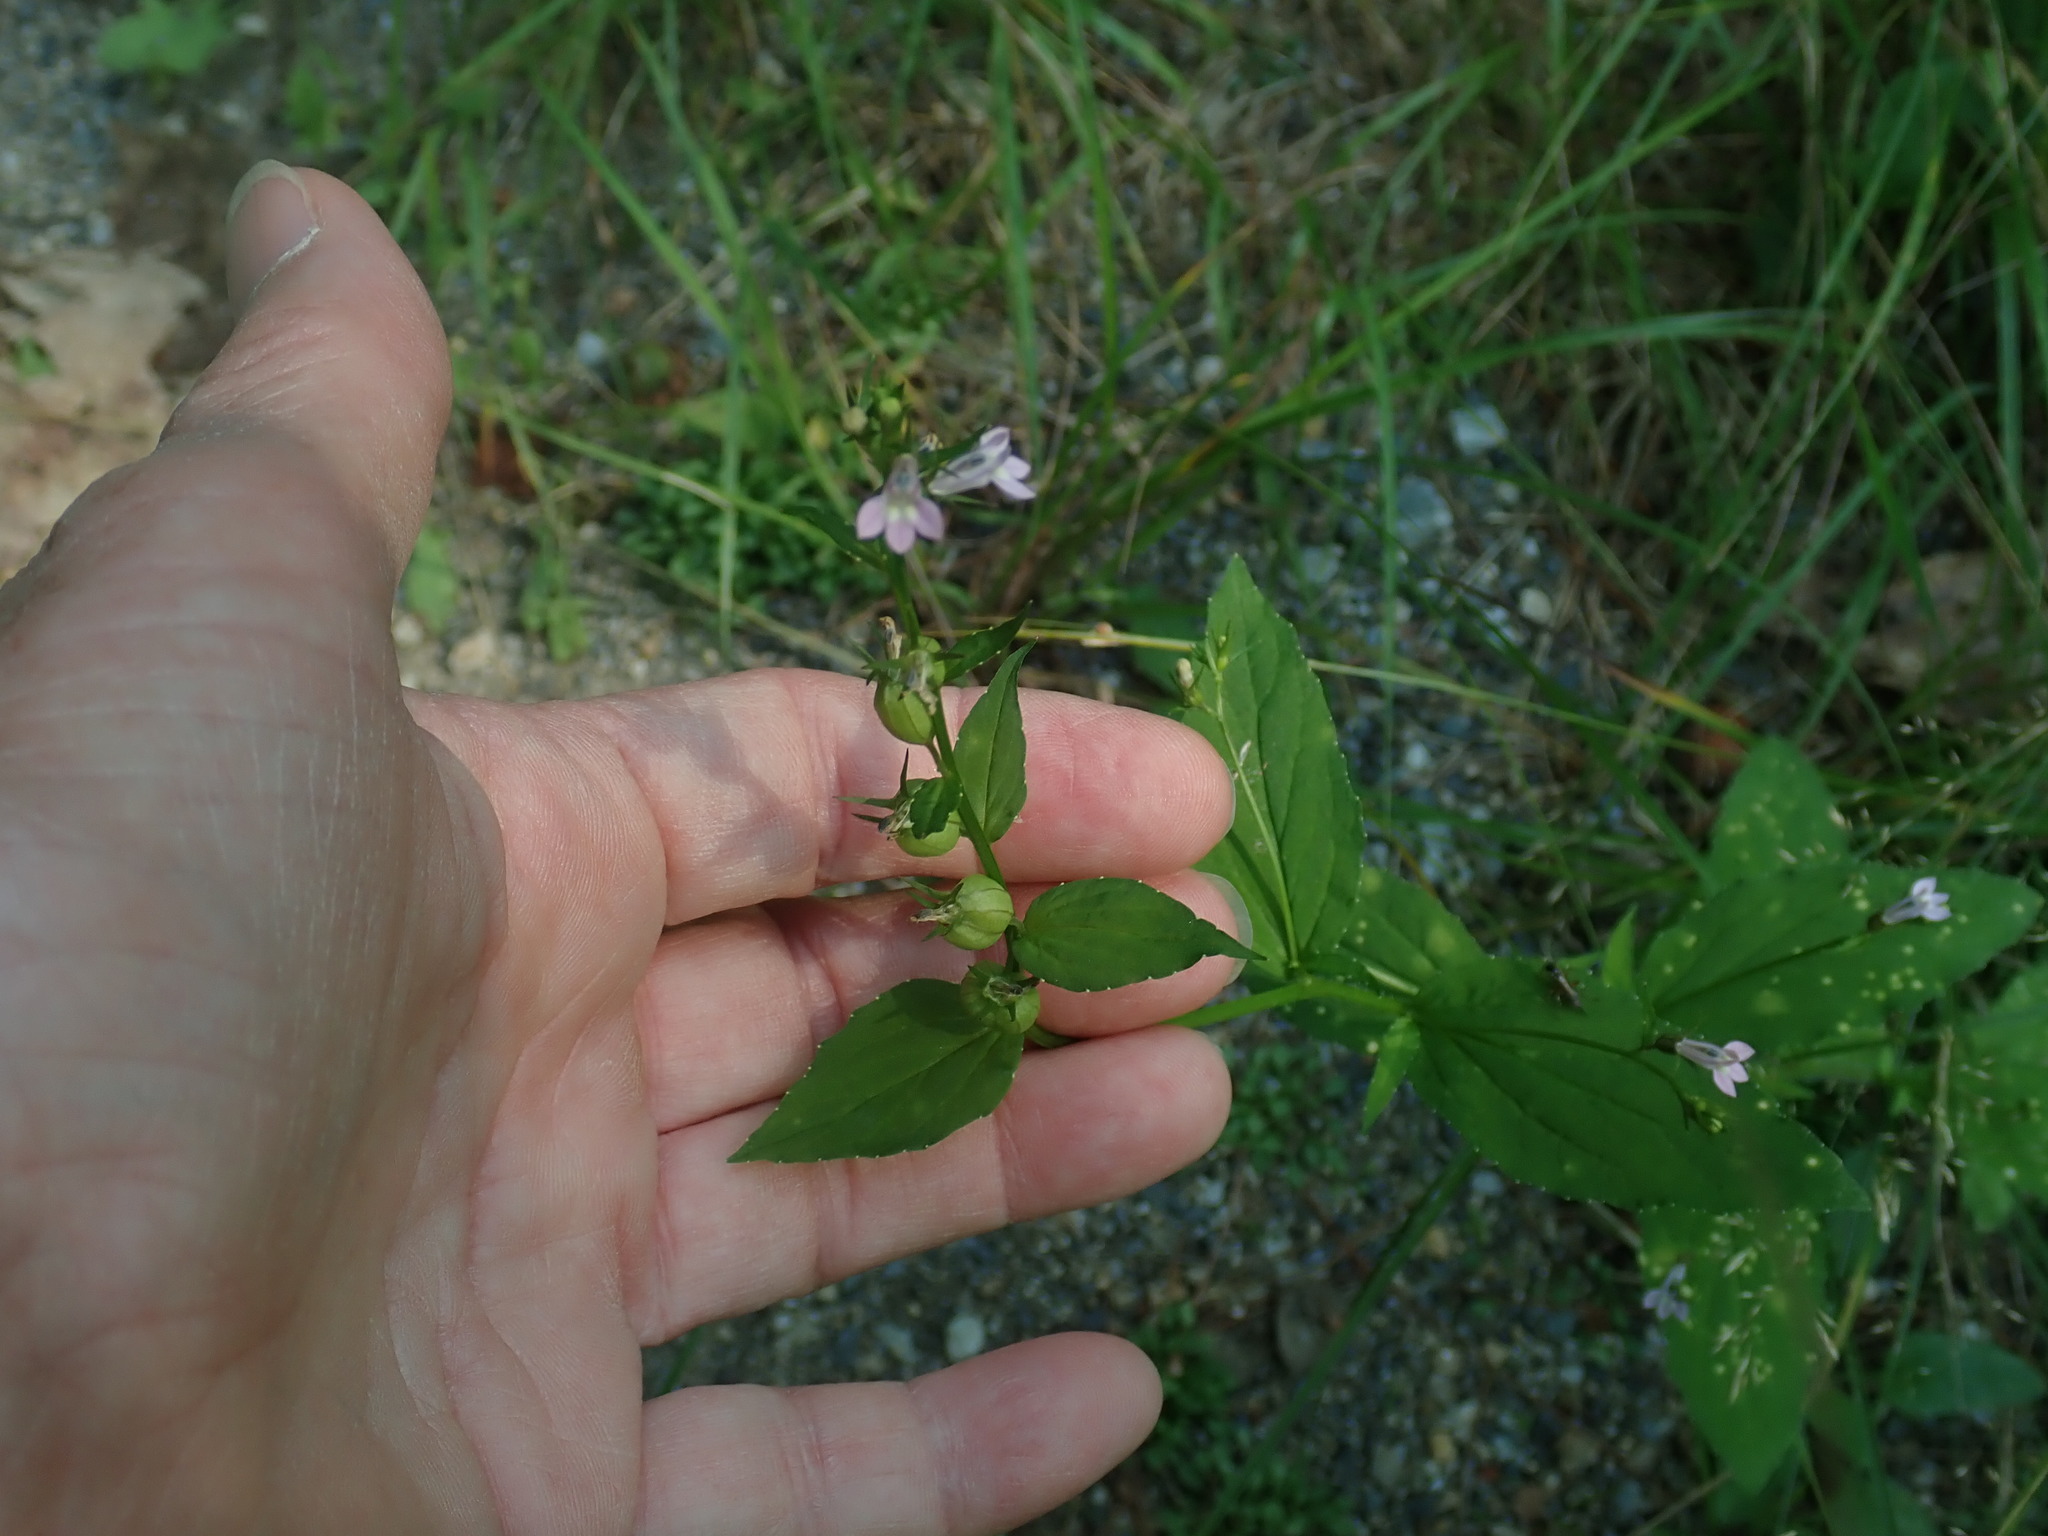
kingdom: Plantae
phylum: Tracheophyta
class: Magnoliopsida
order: Asterales
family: Campanulaceae
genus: Lobelia
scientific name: Lobelia inflata
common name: Indian tobacco
